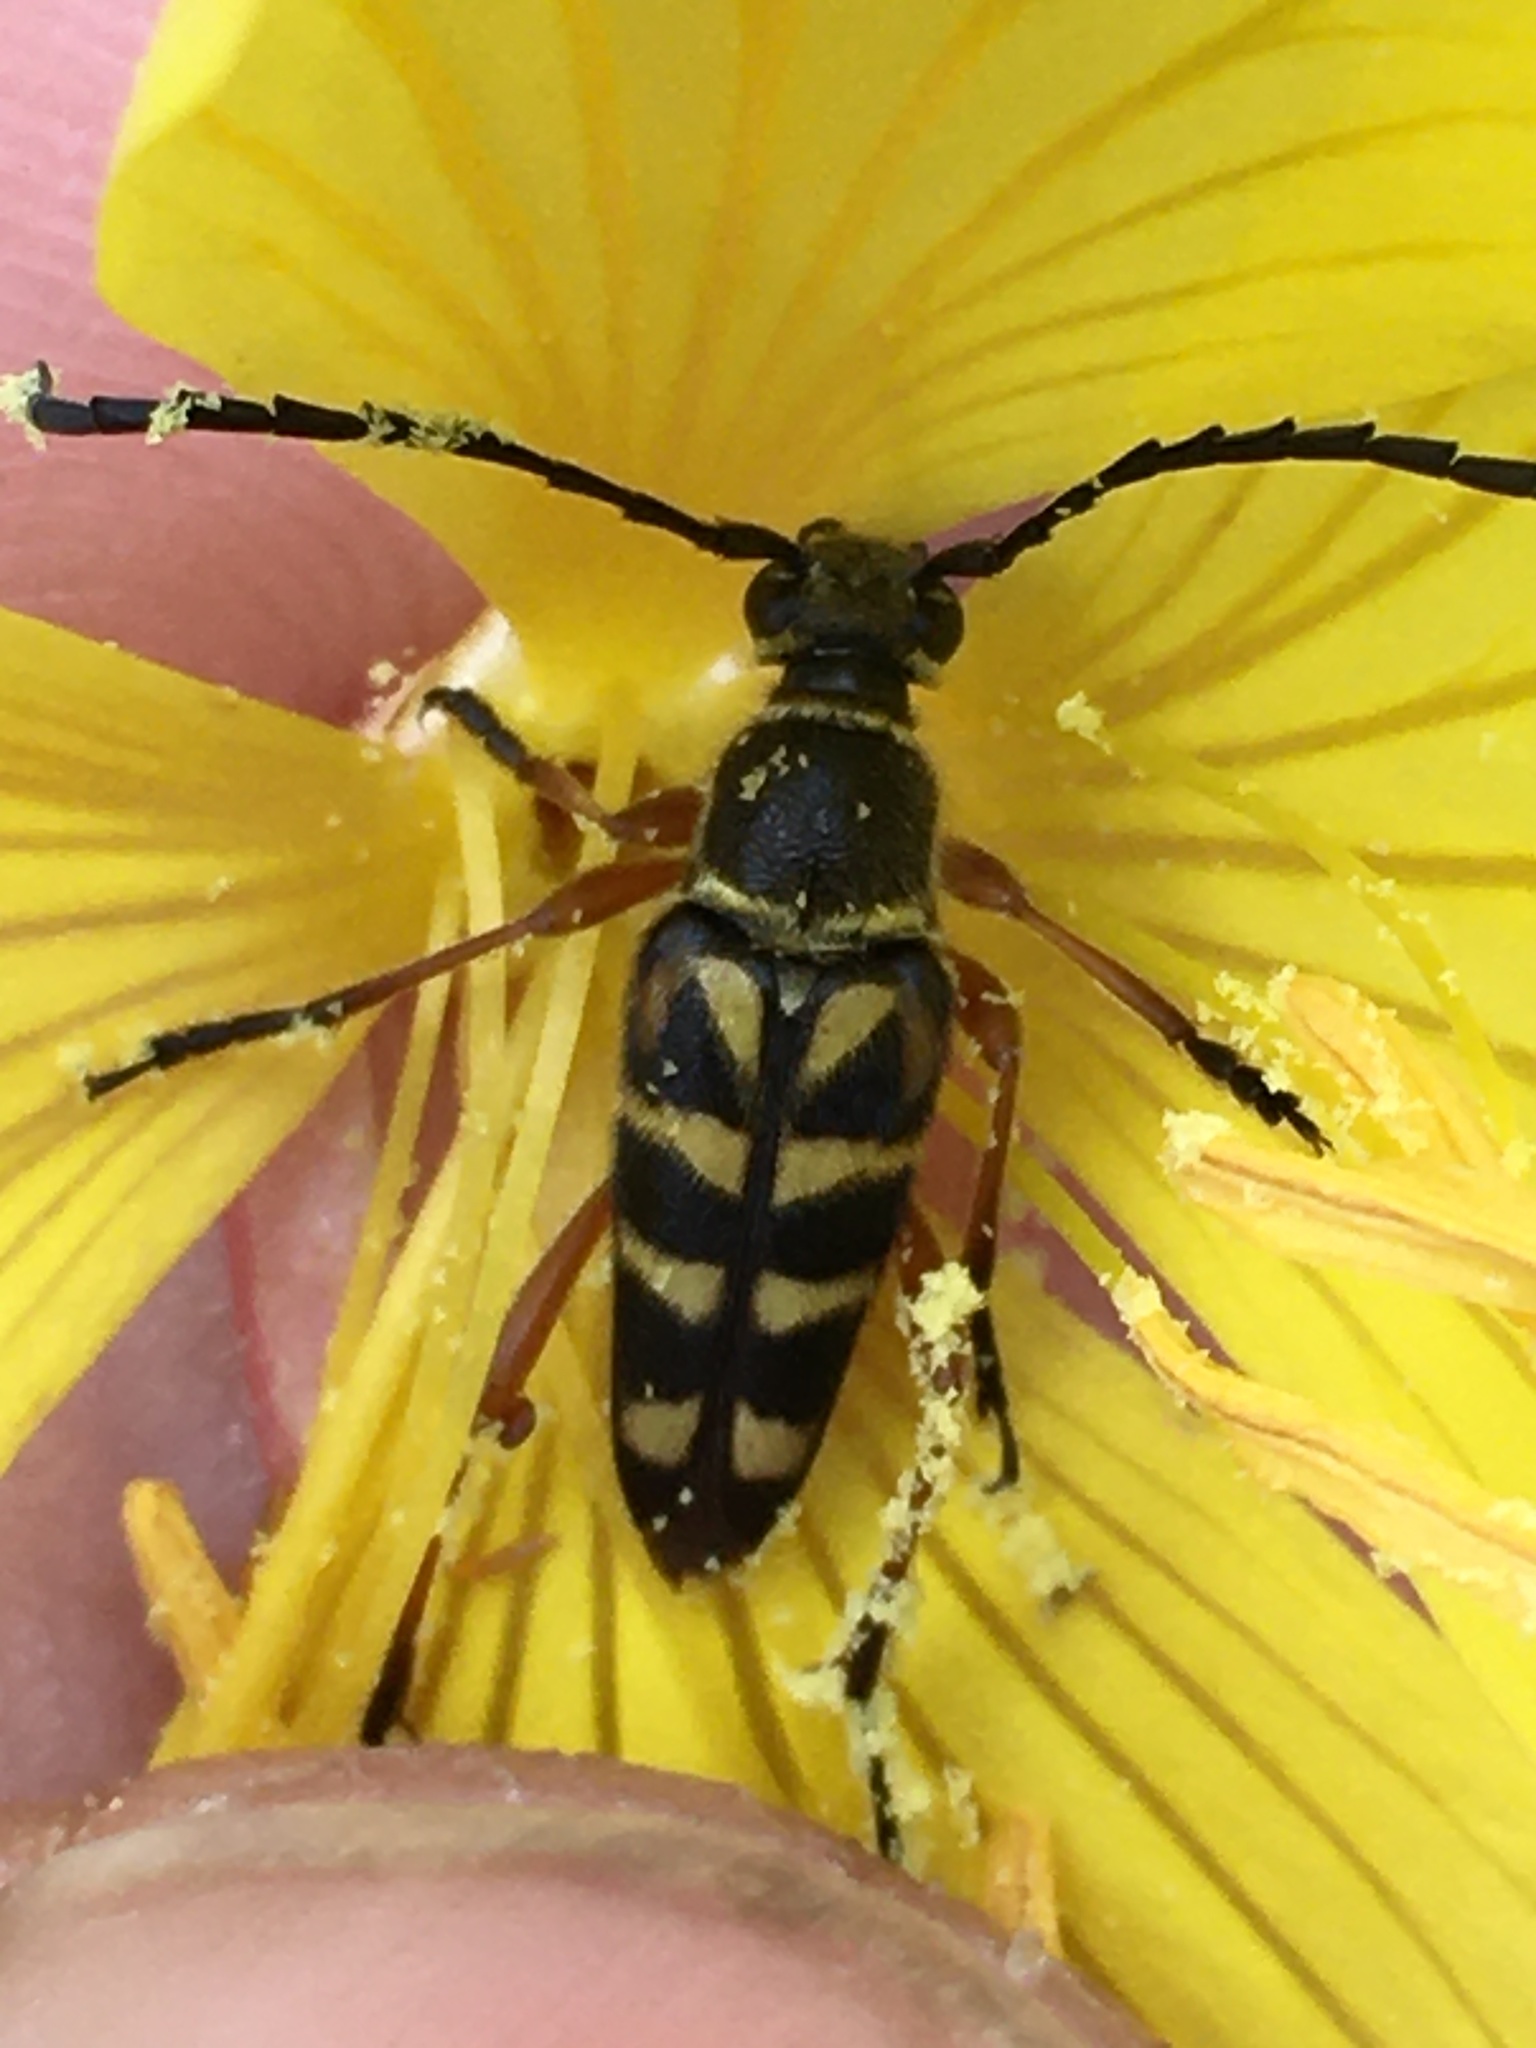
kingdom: Animalia
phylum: Arthropoda
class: Insecta
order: Coleoptera
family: Cerambycidae
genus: Typocerus
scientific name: Typocerus zebra
